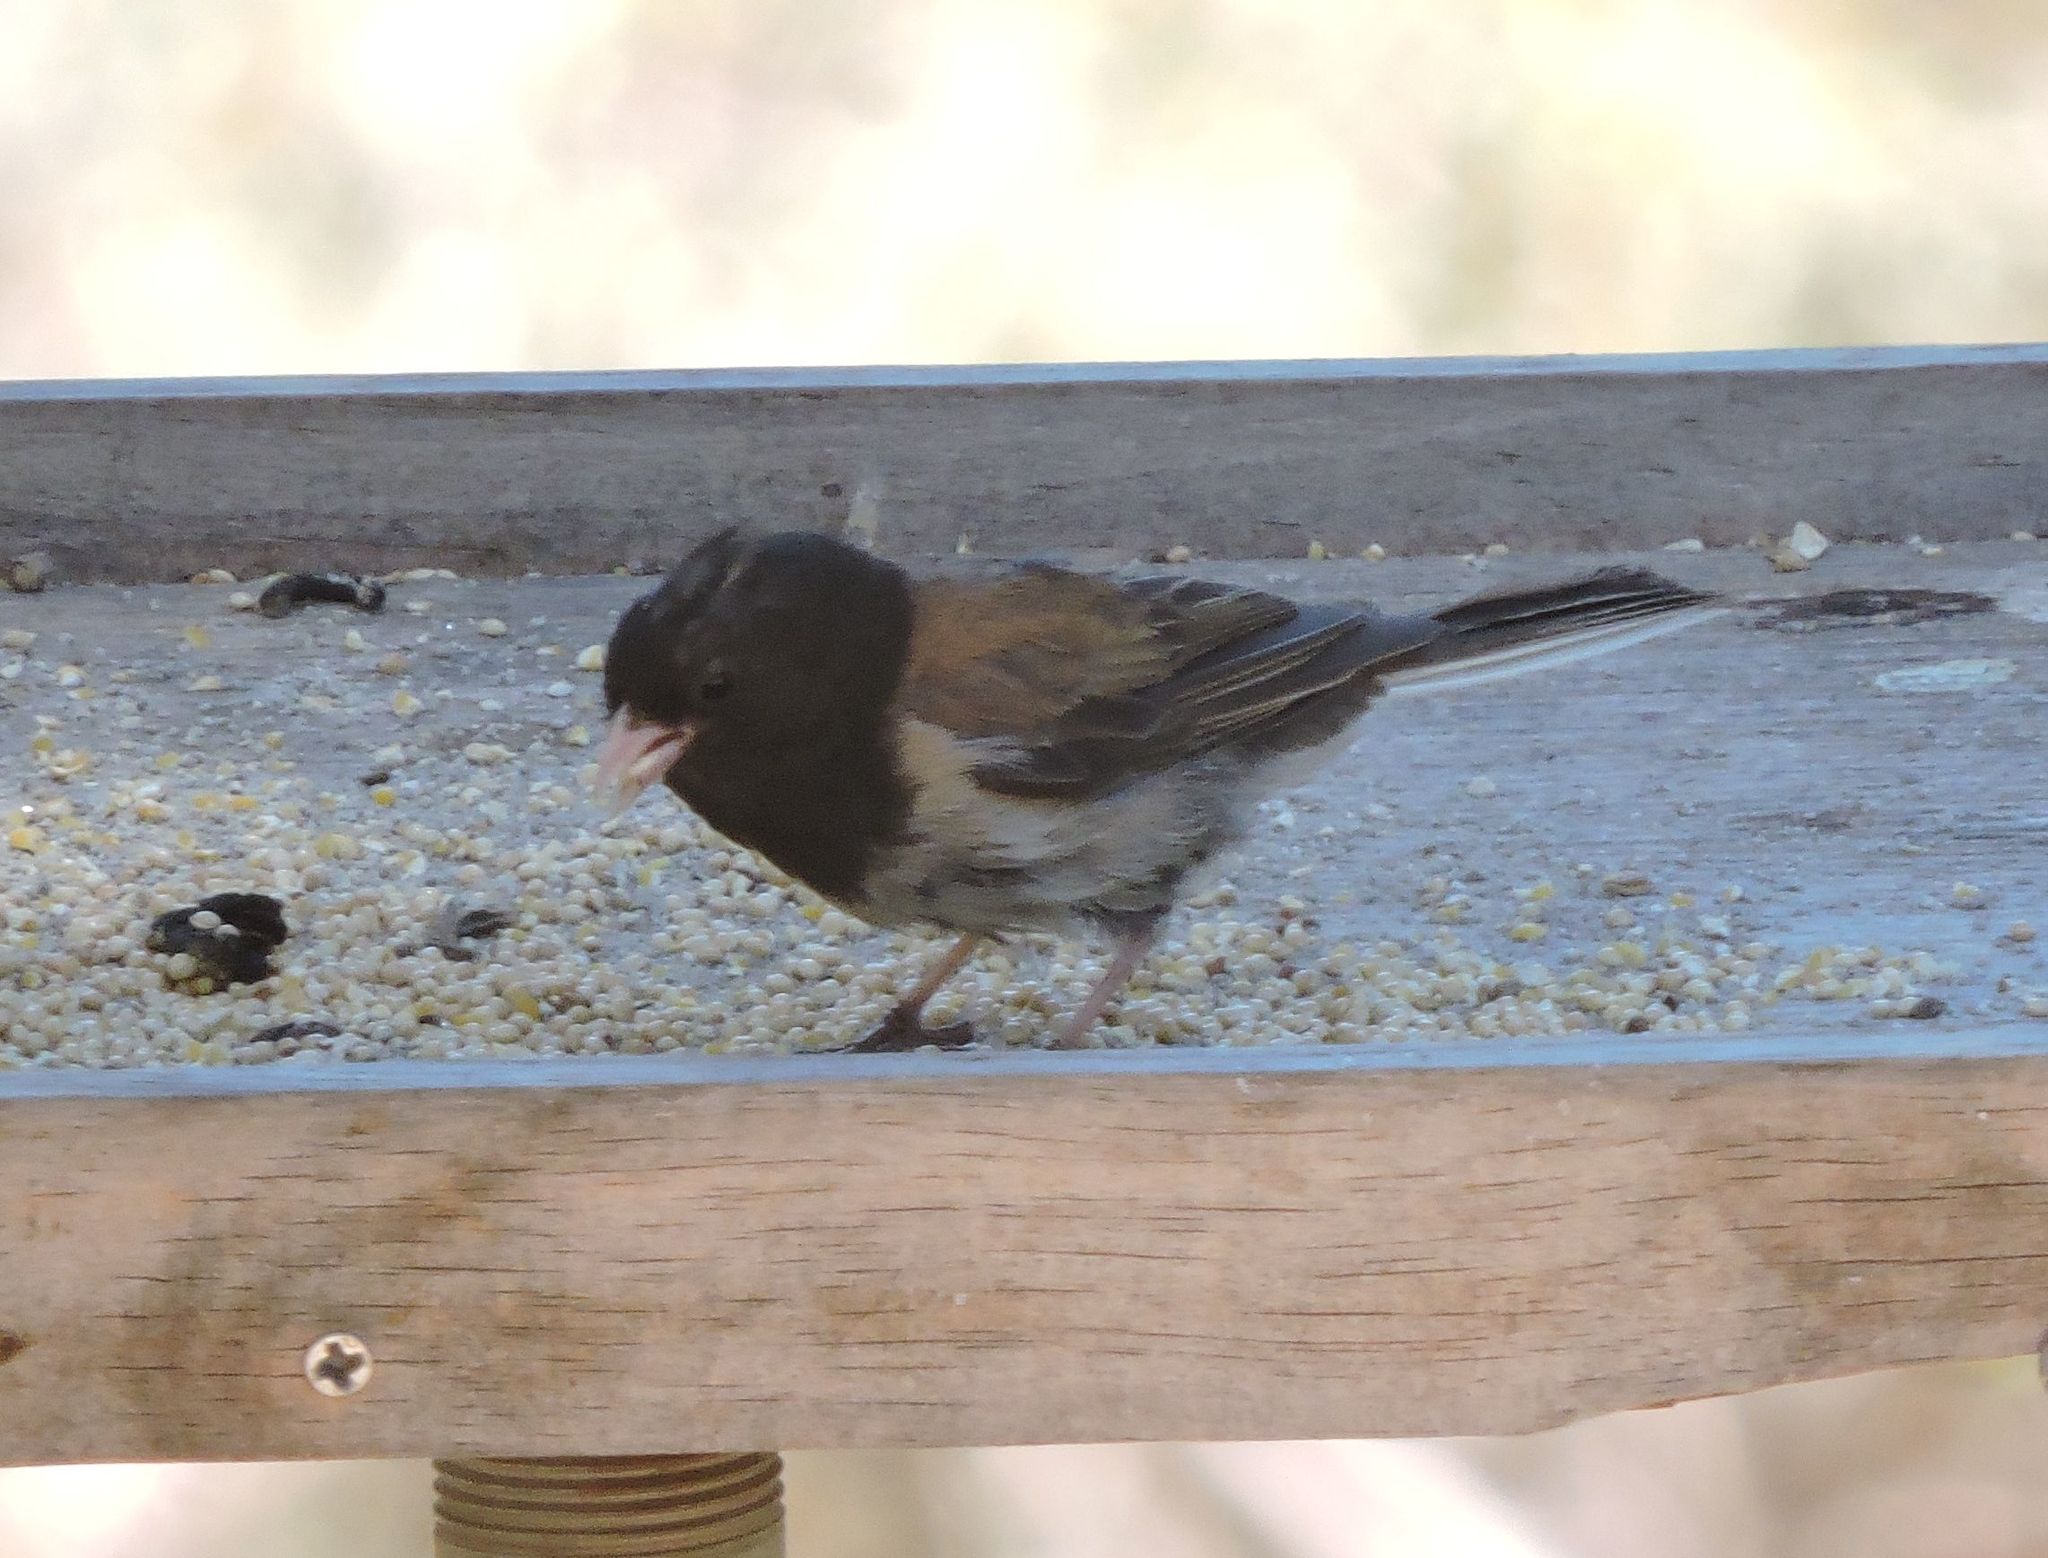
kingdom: Animalia
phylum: Chordata
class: Aves
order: Passeriformes
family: Passerellidae
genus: Junco
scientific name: Junco hyemalis
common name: Dark-eyed junco
